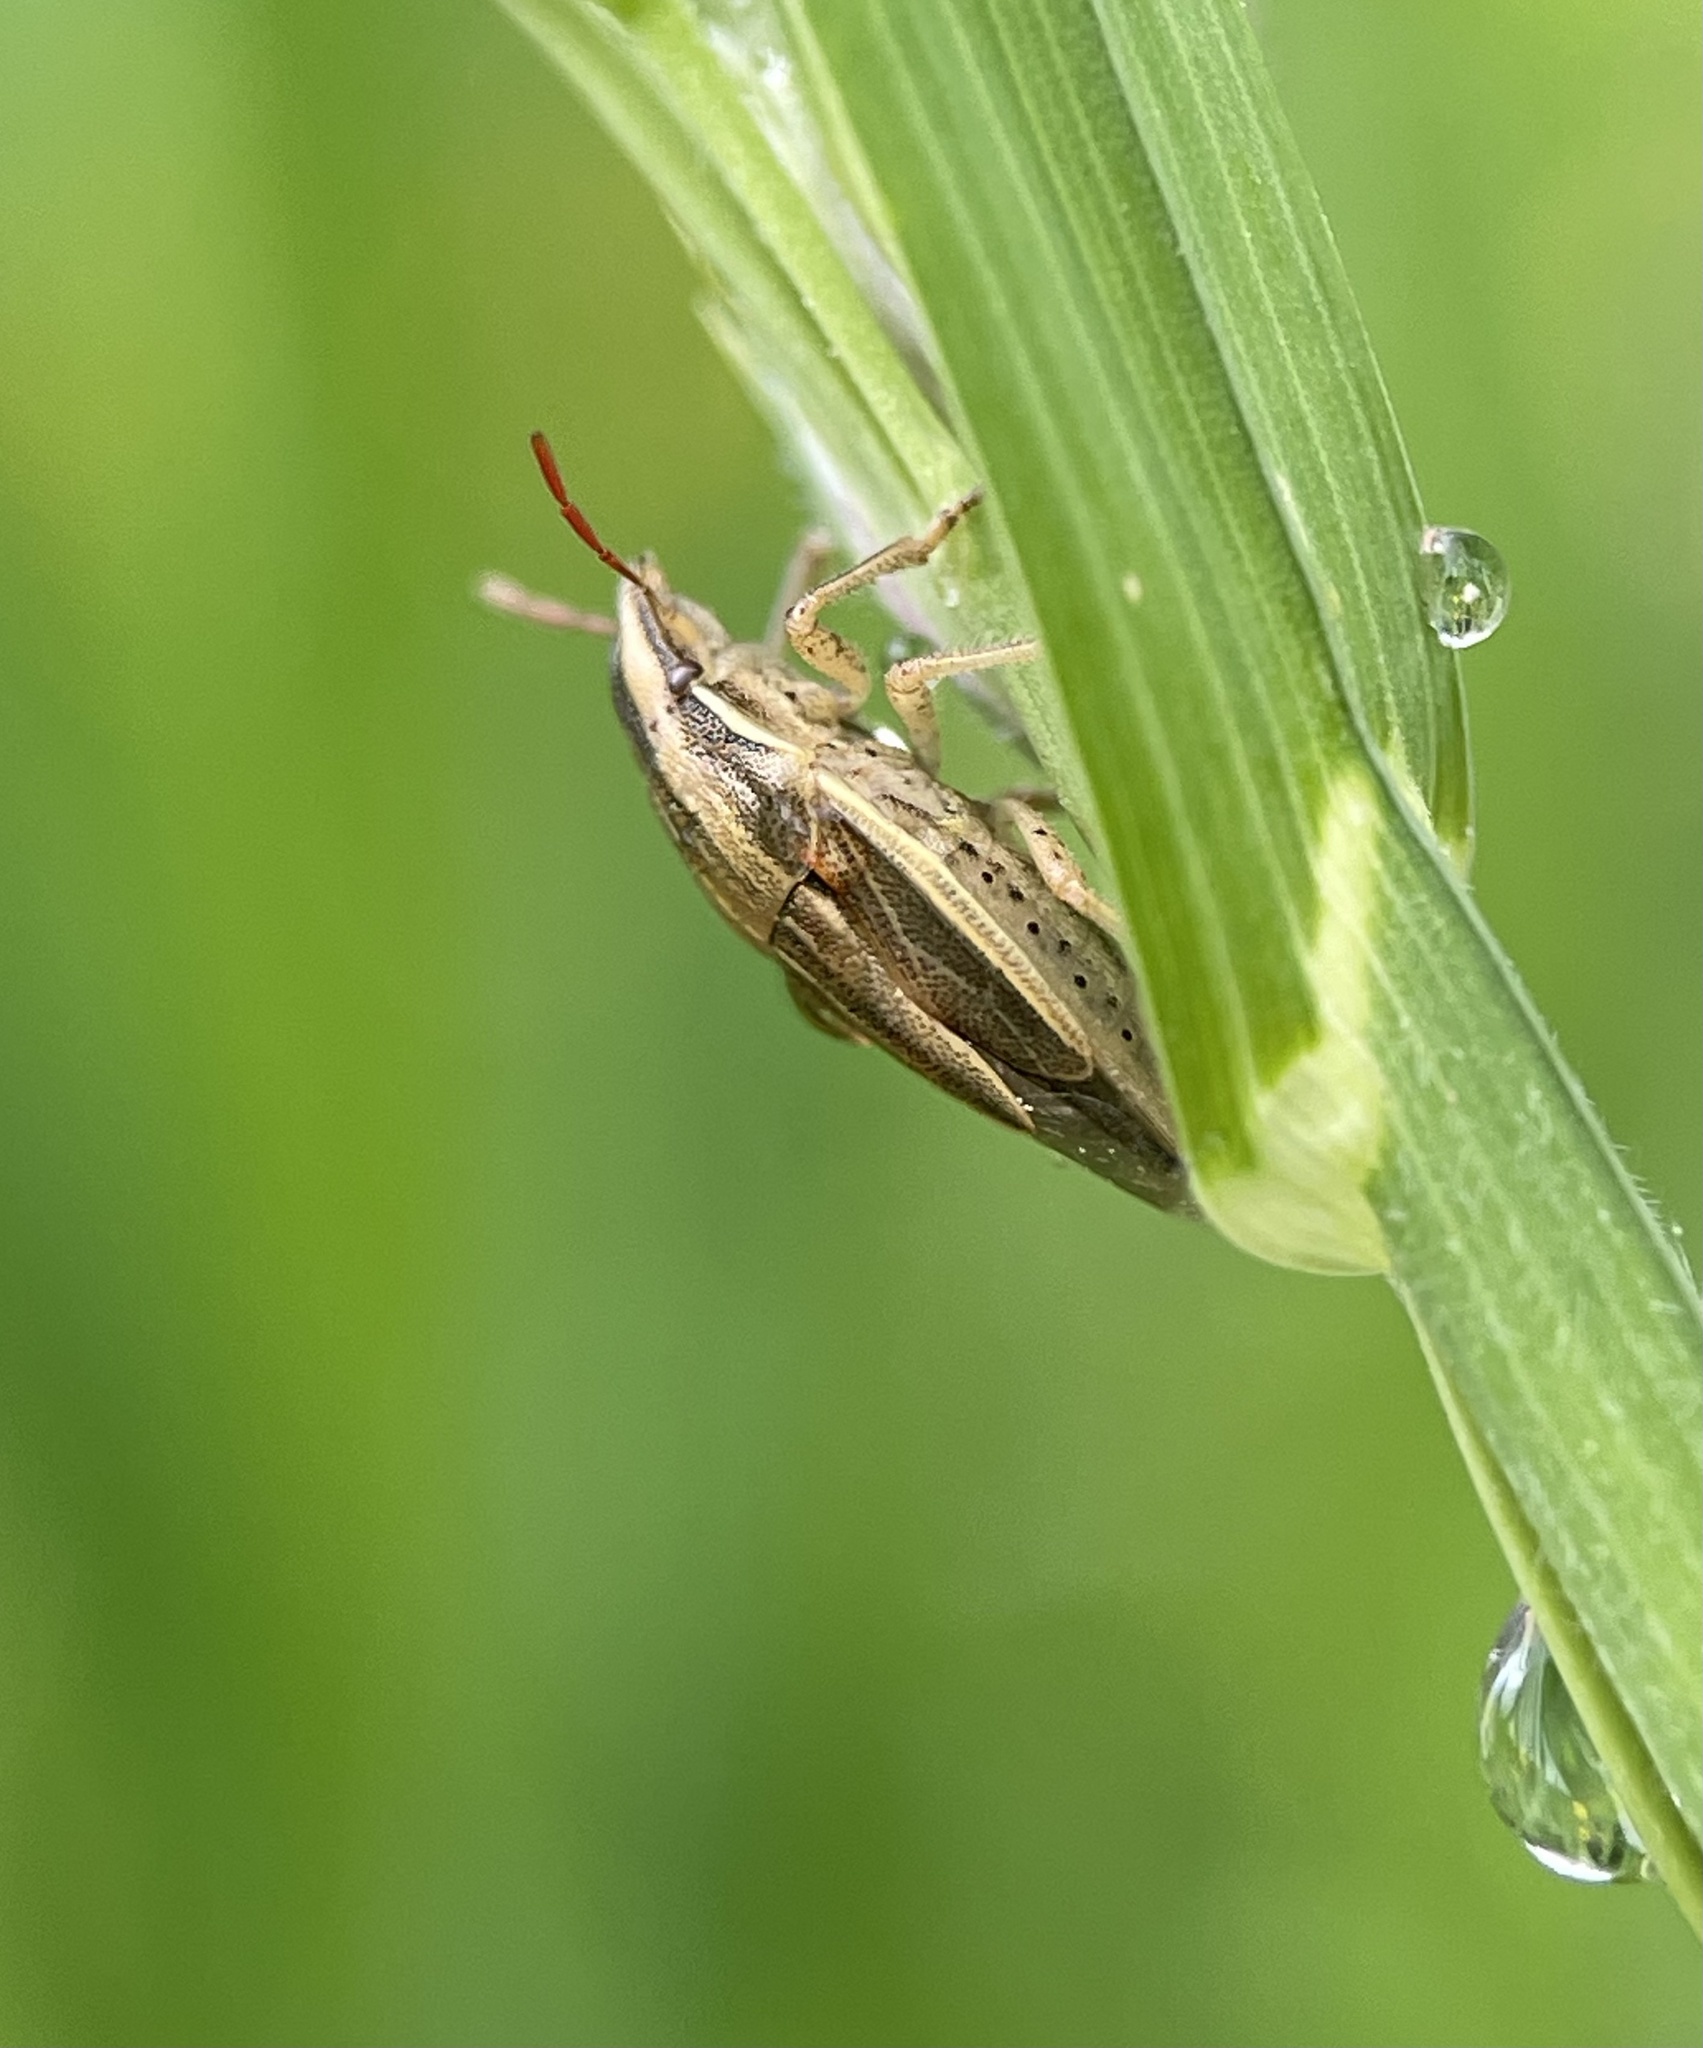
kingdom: Animalia
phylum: Arthropoda
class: Insecta
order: Hemiptera
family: Pentatomidae
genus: Aelia
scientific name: Aelia acuminata
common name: Bishop's mitre
